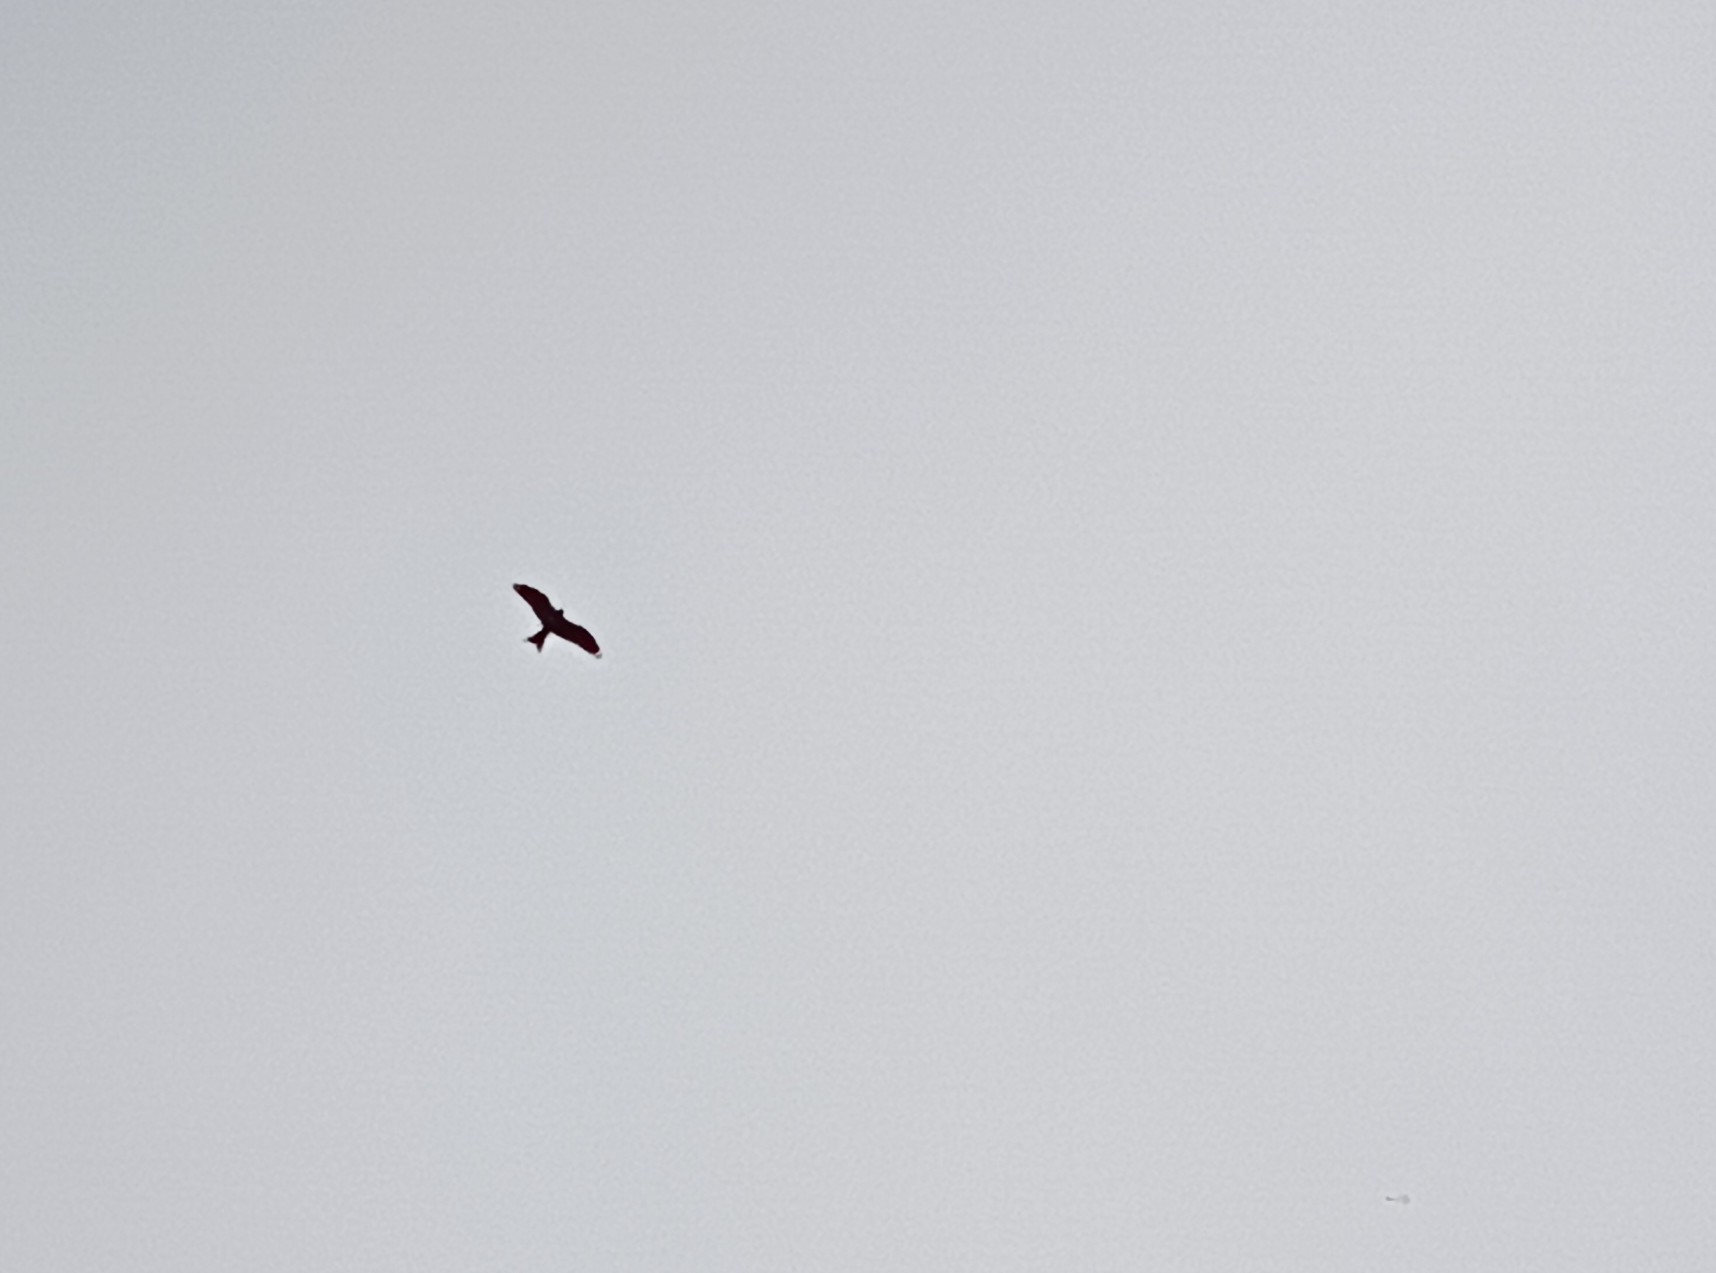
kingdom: Animalia
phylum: Chordata
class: Aves
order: Accipitriformes
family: Accipitridae
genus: Milvus
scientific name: Milvus migrans
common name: Black kite
